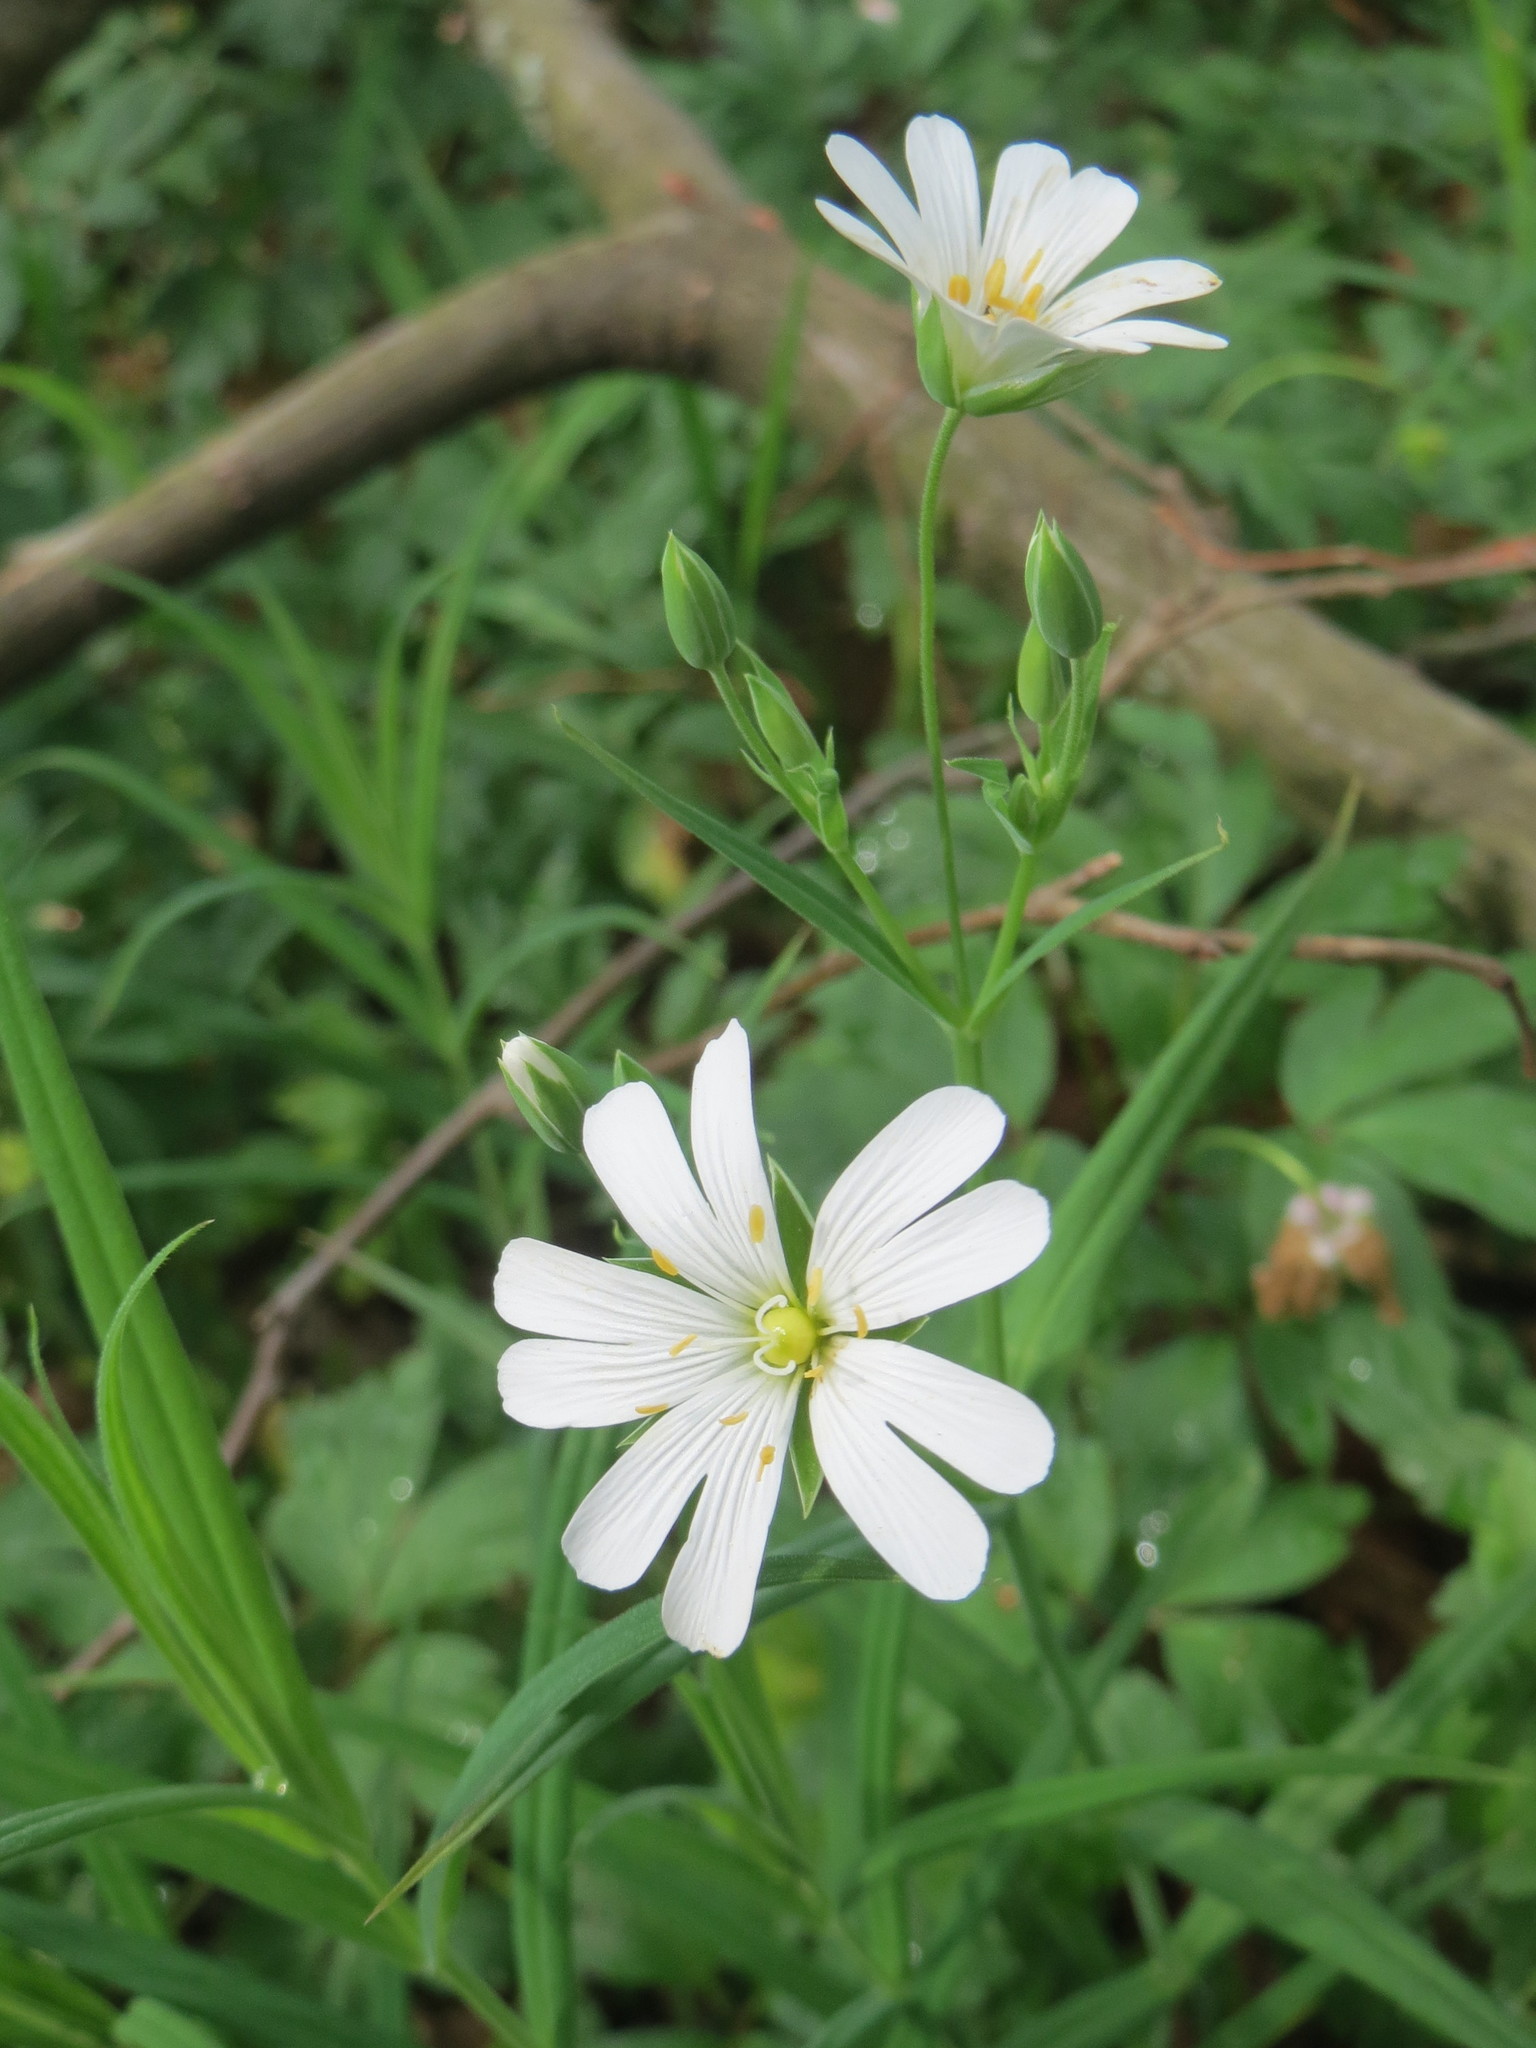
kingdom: Plantae
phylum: Tracheophyta
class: Magnoliopsida
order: Caryophyllales
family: Caryophyllaceae
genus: Rabelera
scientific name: Rabelera holostea
